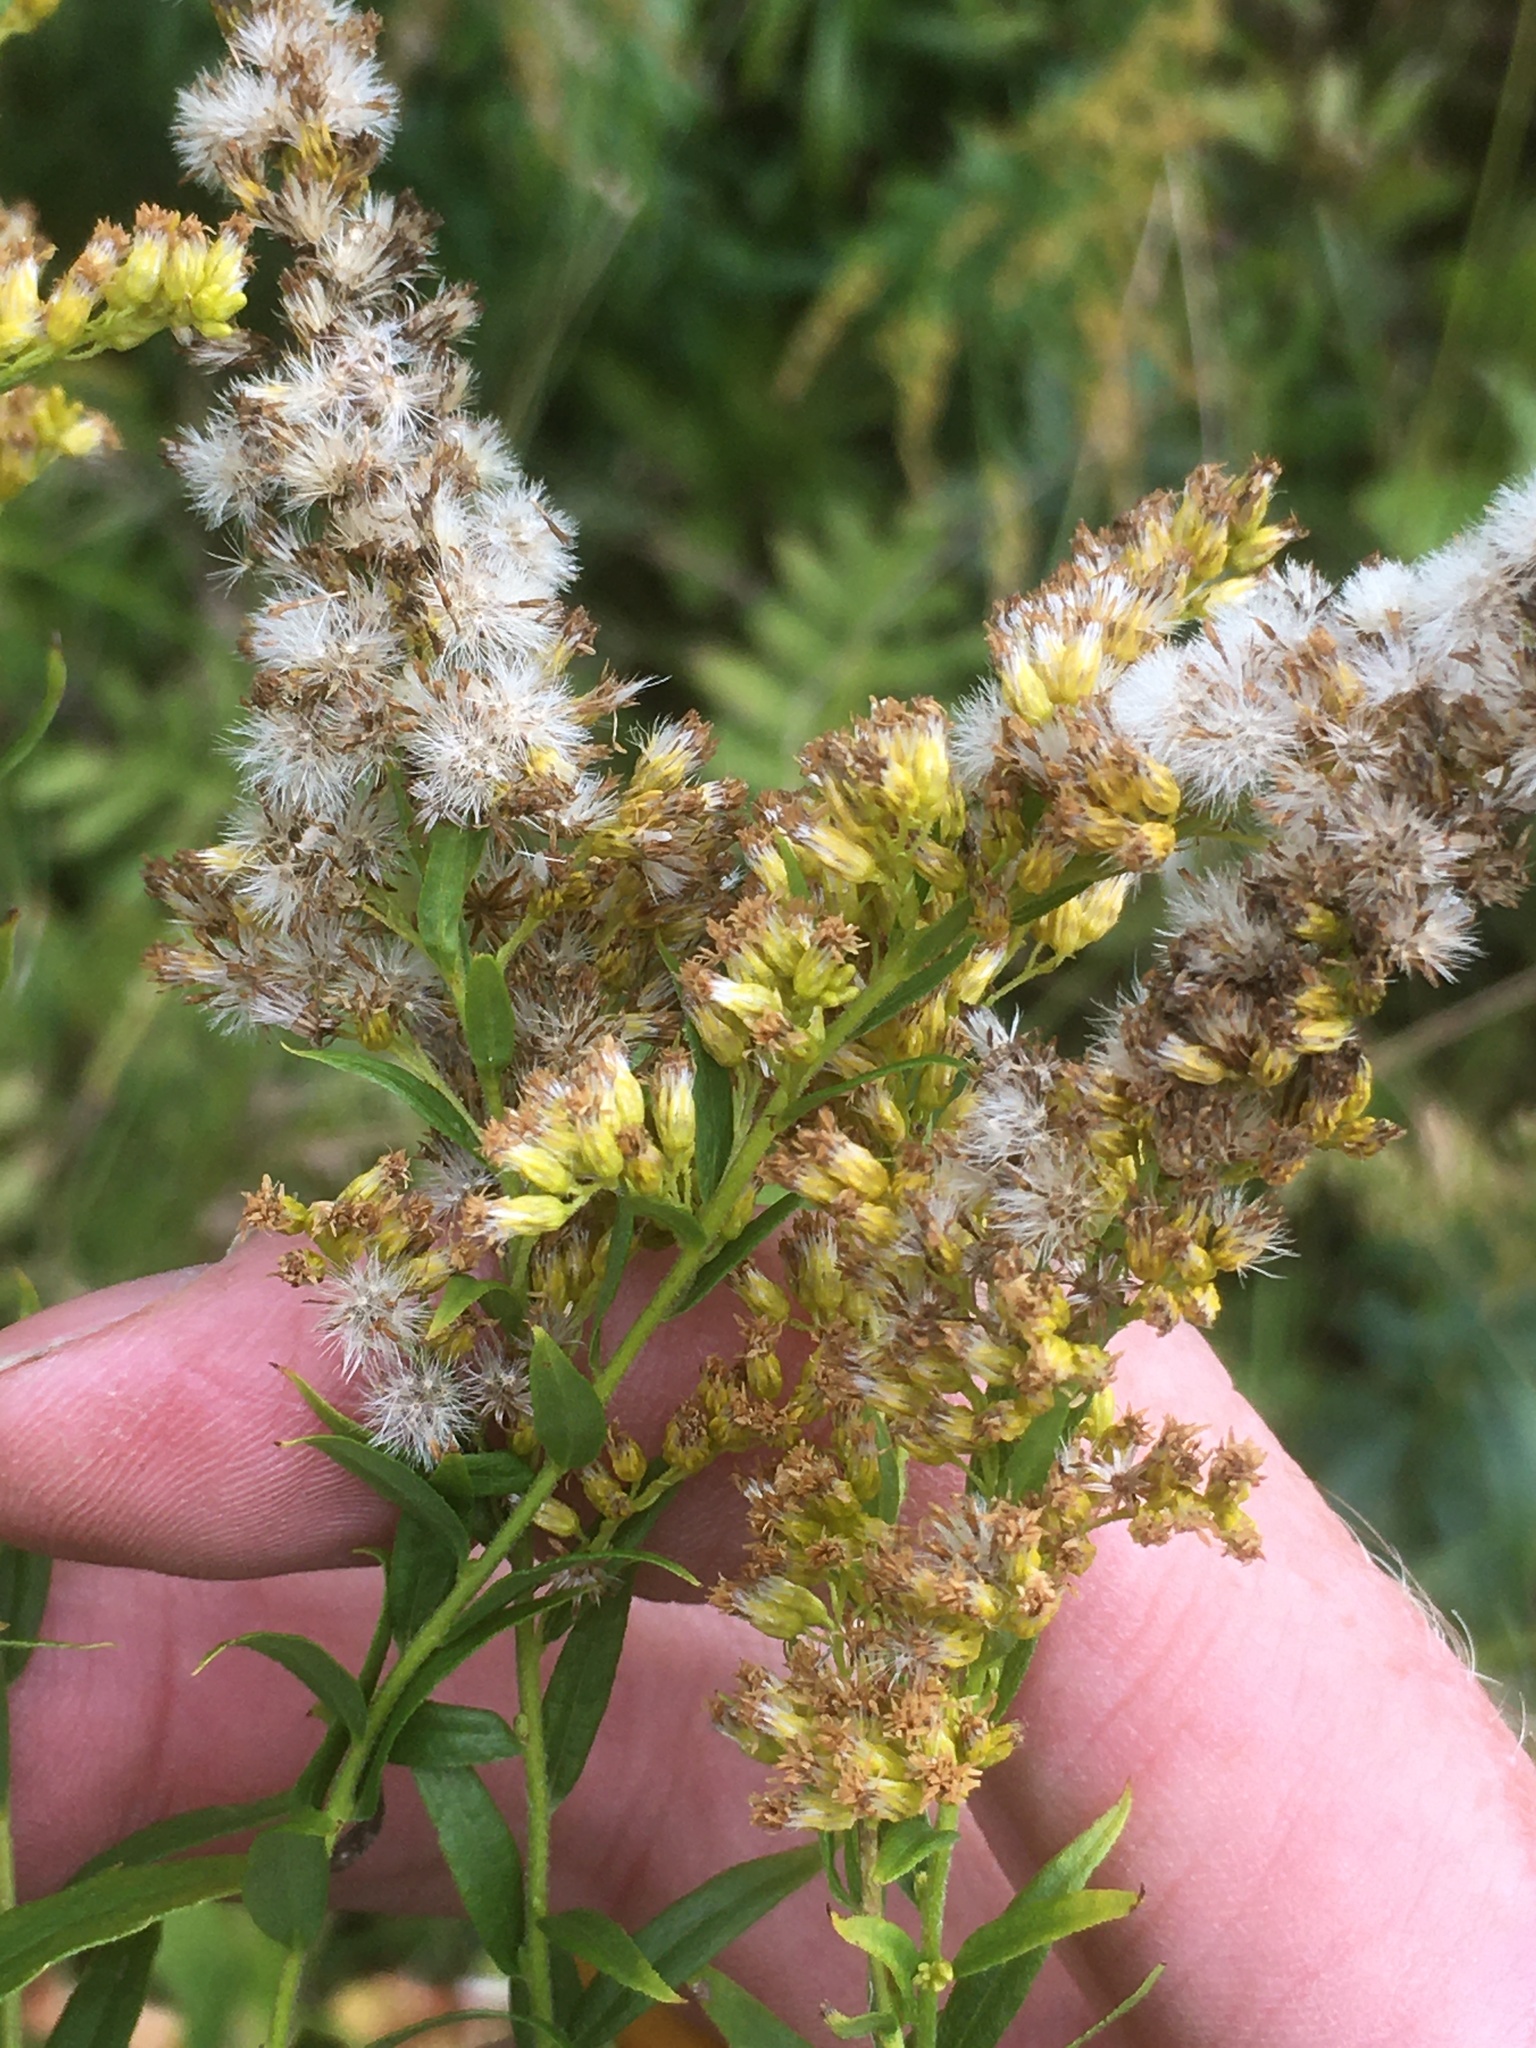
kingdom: Plantae
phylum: Tracheophyta
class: Magnoliopsida
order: Asterales
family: Asteraceae
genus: Solidago
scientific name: Solidago canadensis
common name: Canada goldenrod
